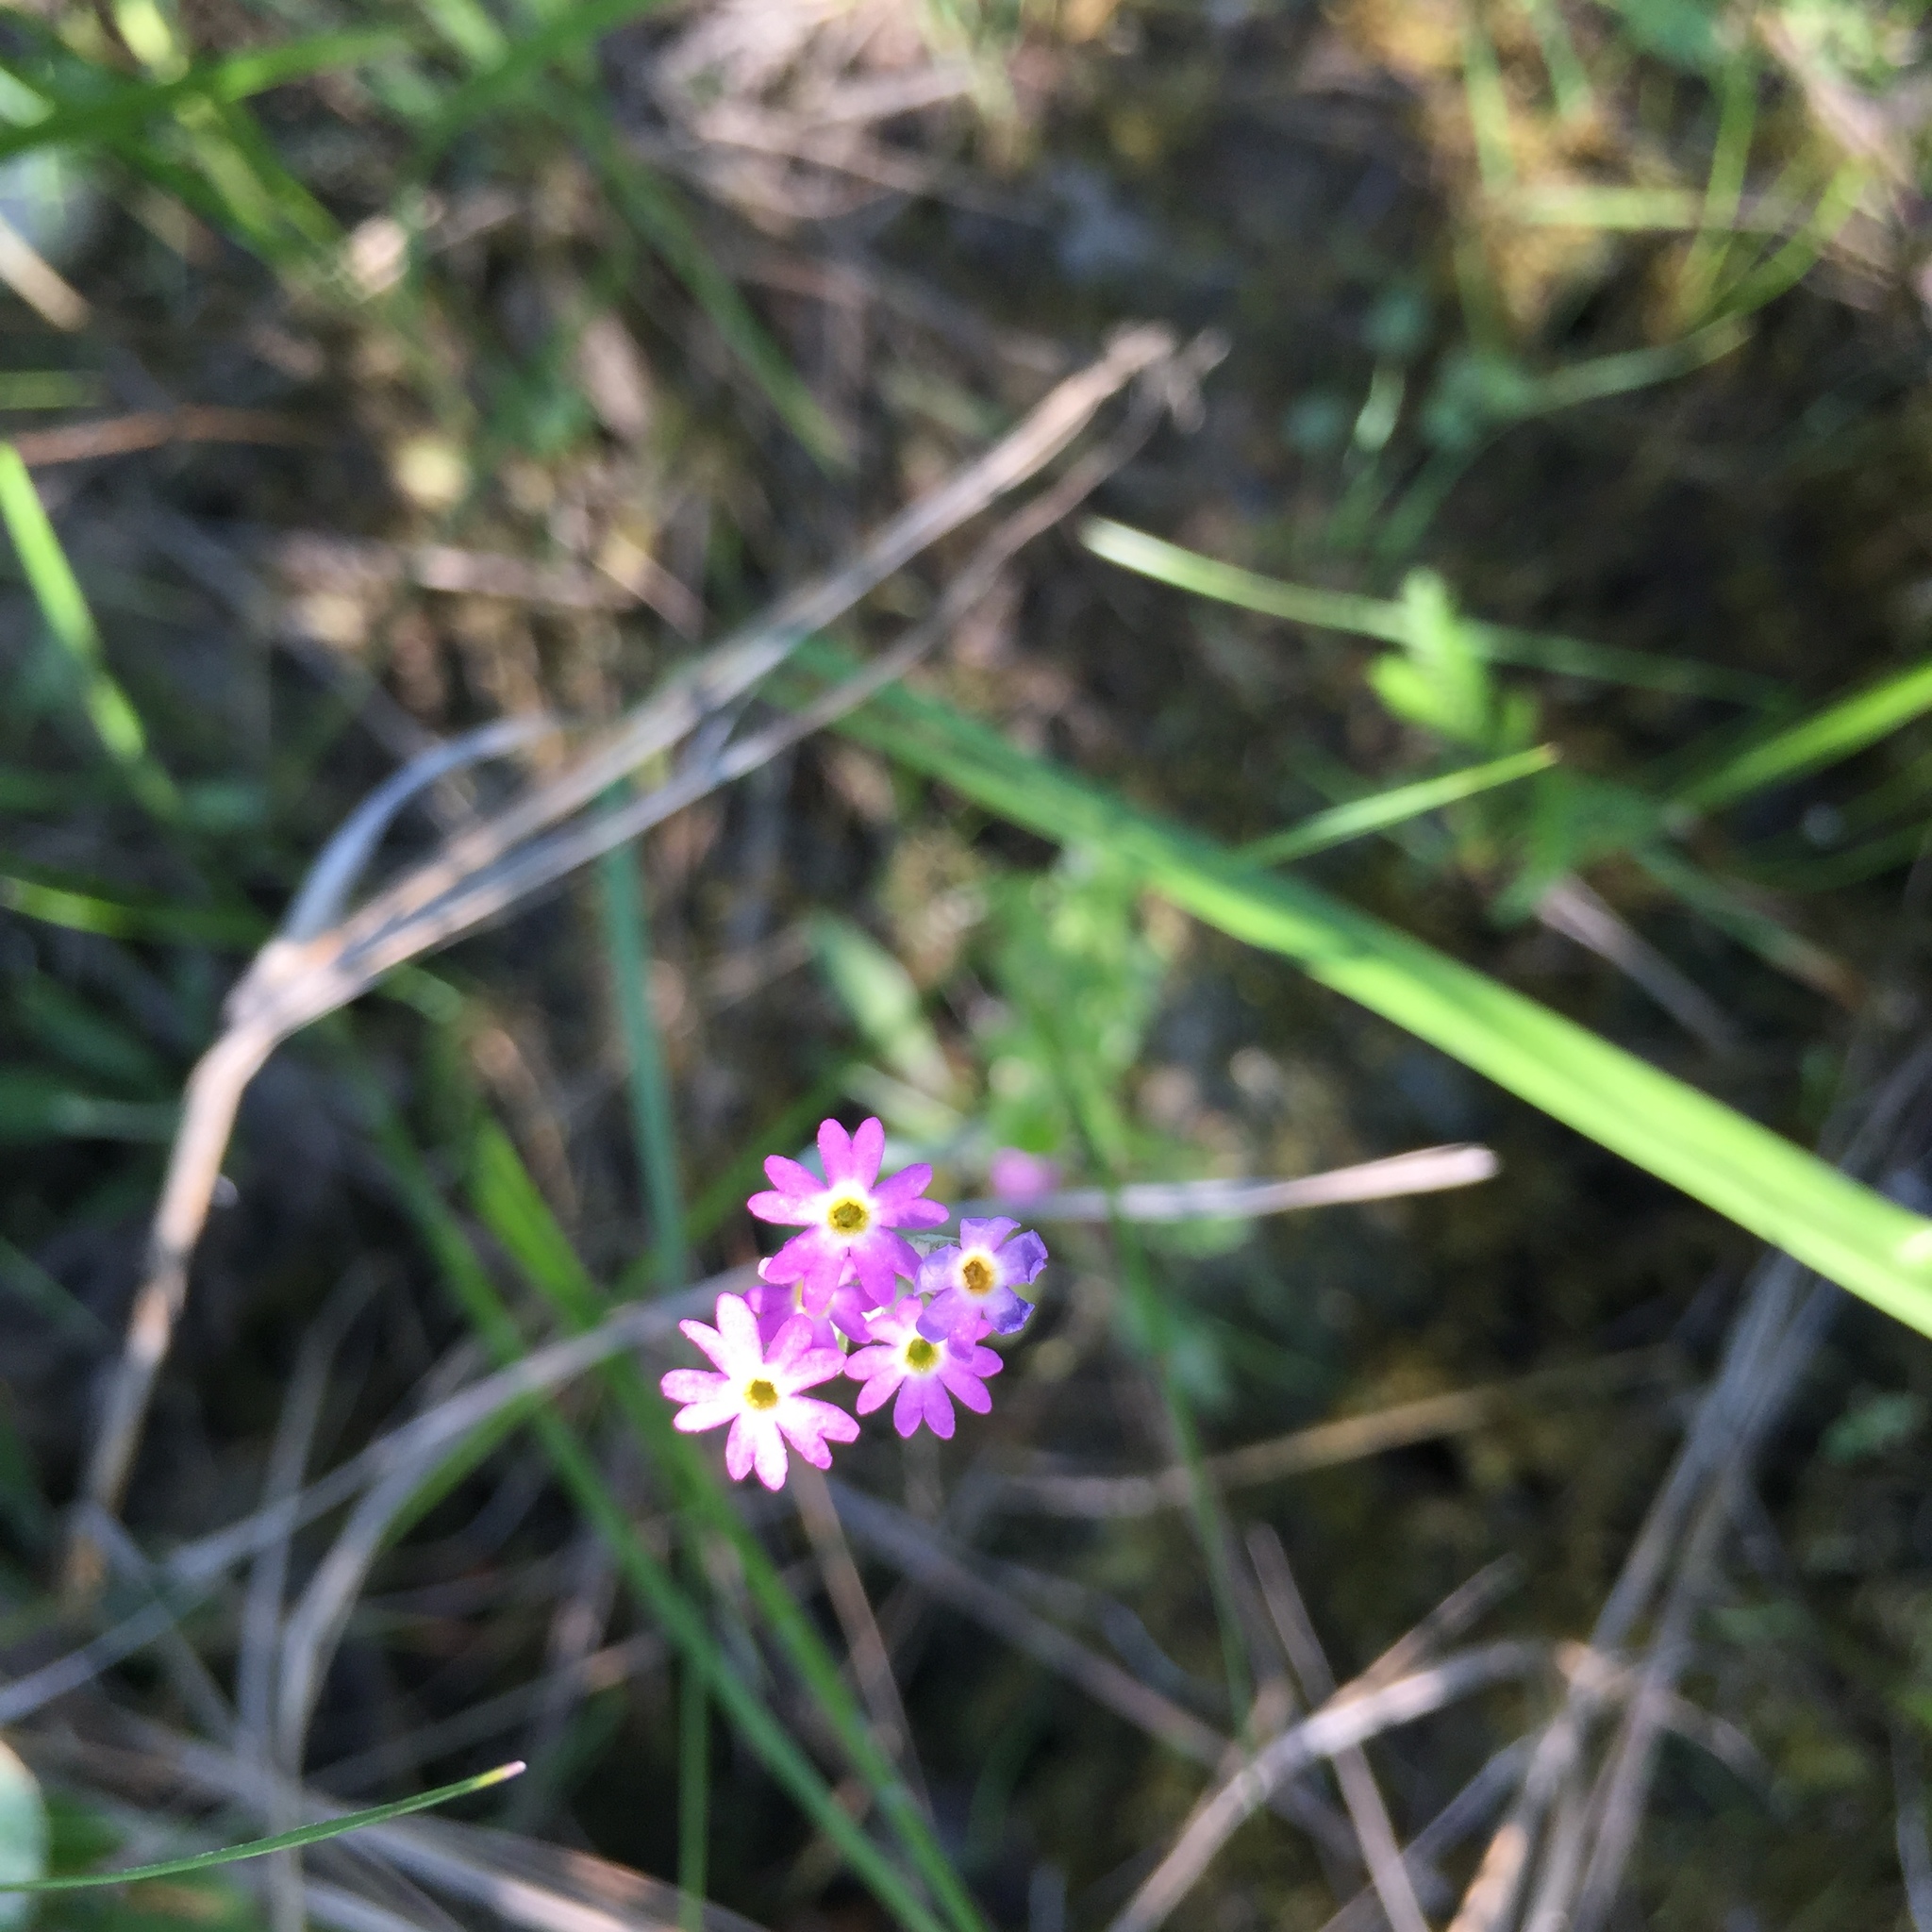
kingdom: Plantae
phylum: Tracheophyta
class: Magnoliopsida
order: Ericales
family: Primulaceae
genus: Primula
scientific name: Primula incana
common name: Hoary primrose
